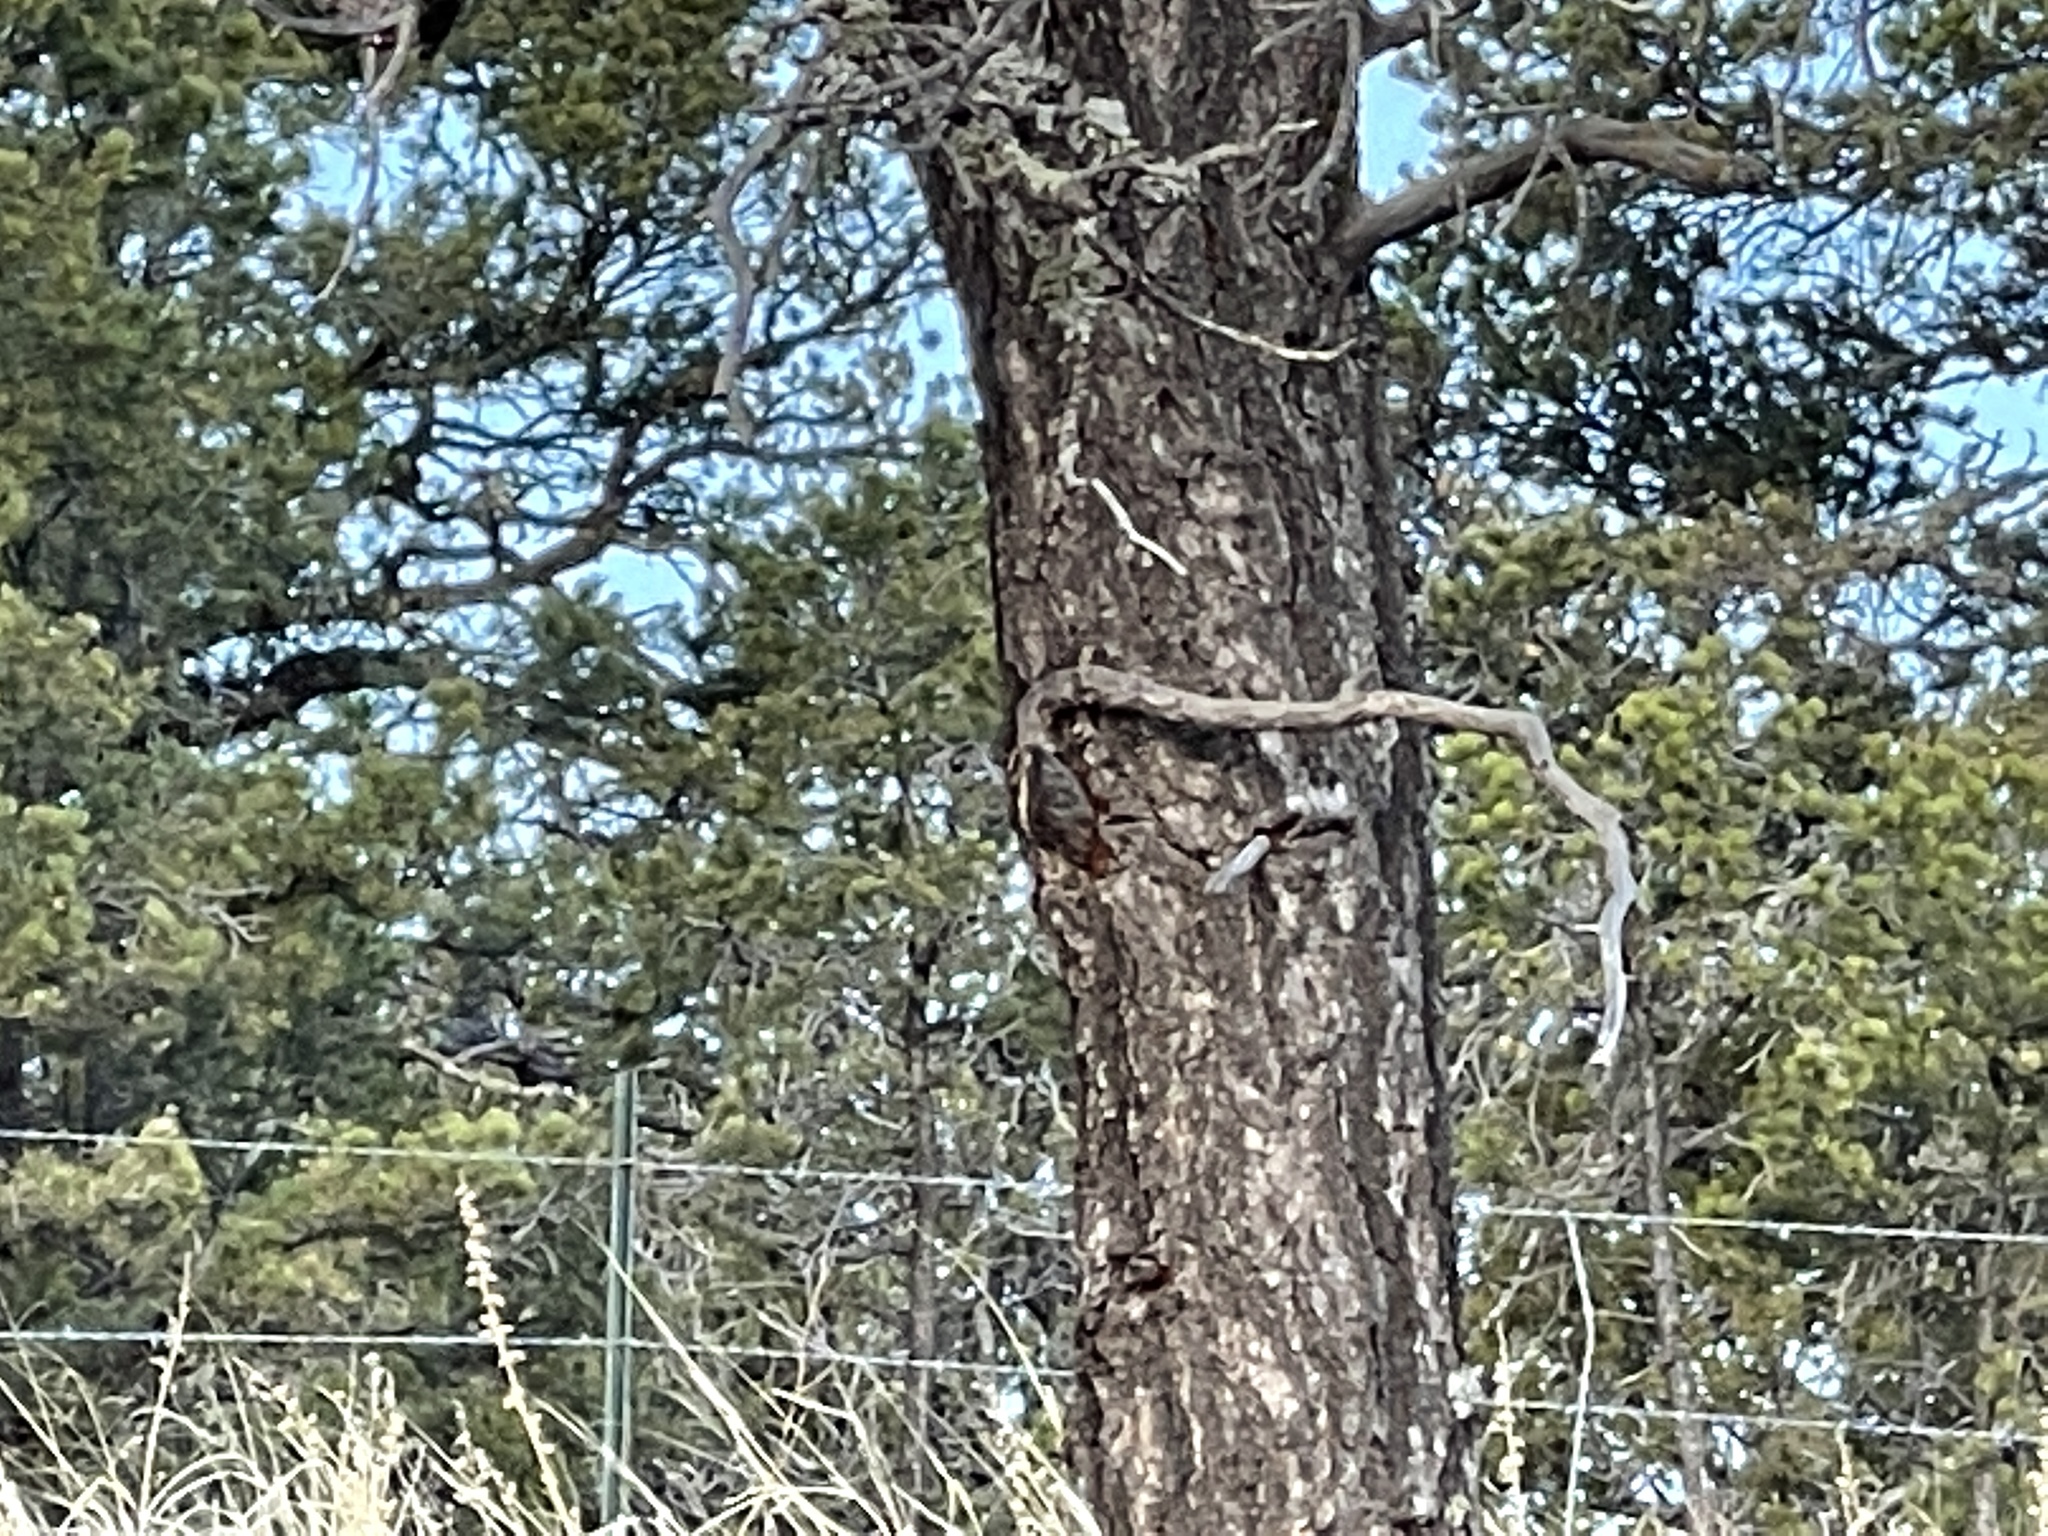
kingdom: Plantae
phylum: Tracheophyta
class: Pinopsida
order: Pinales
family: Pinaceae
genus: Pinus
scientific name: Pinus edulis
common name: Colorado pinyon
